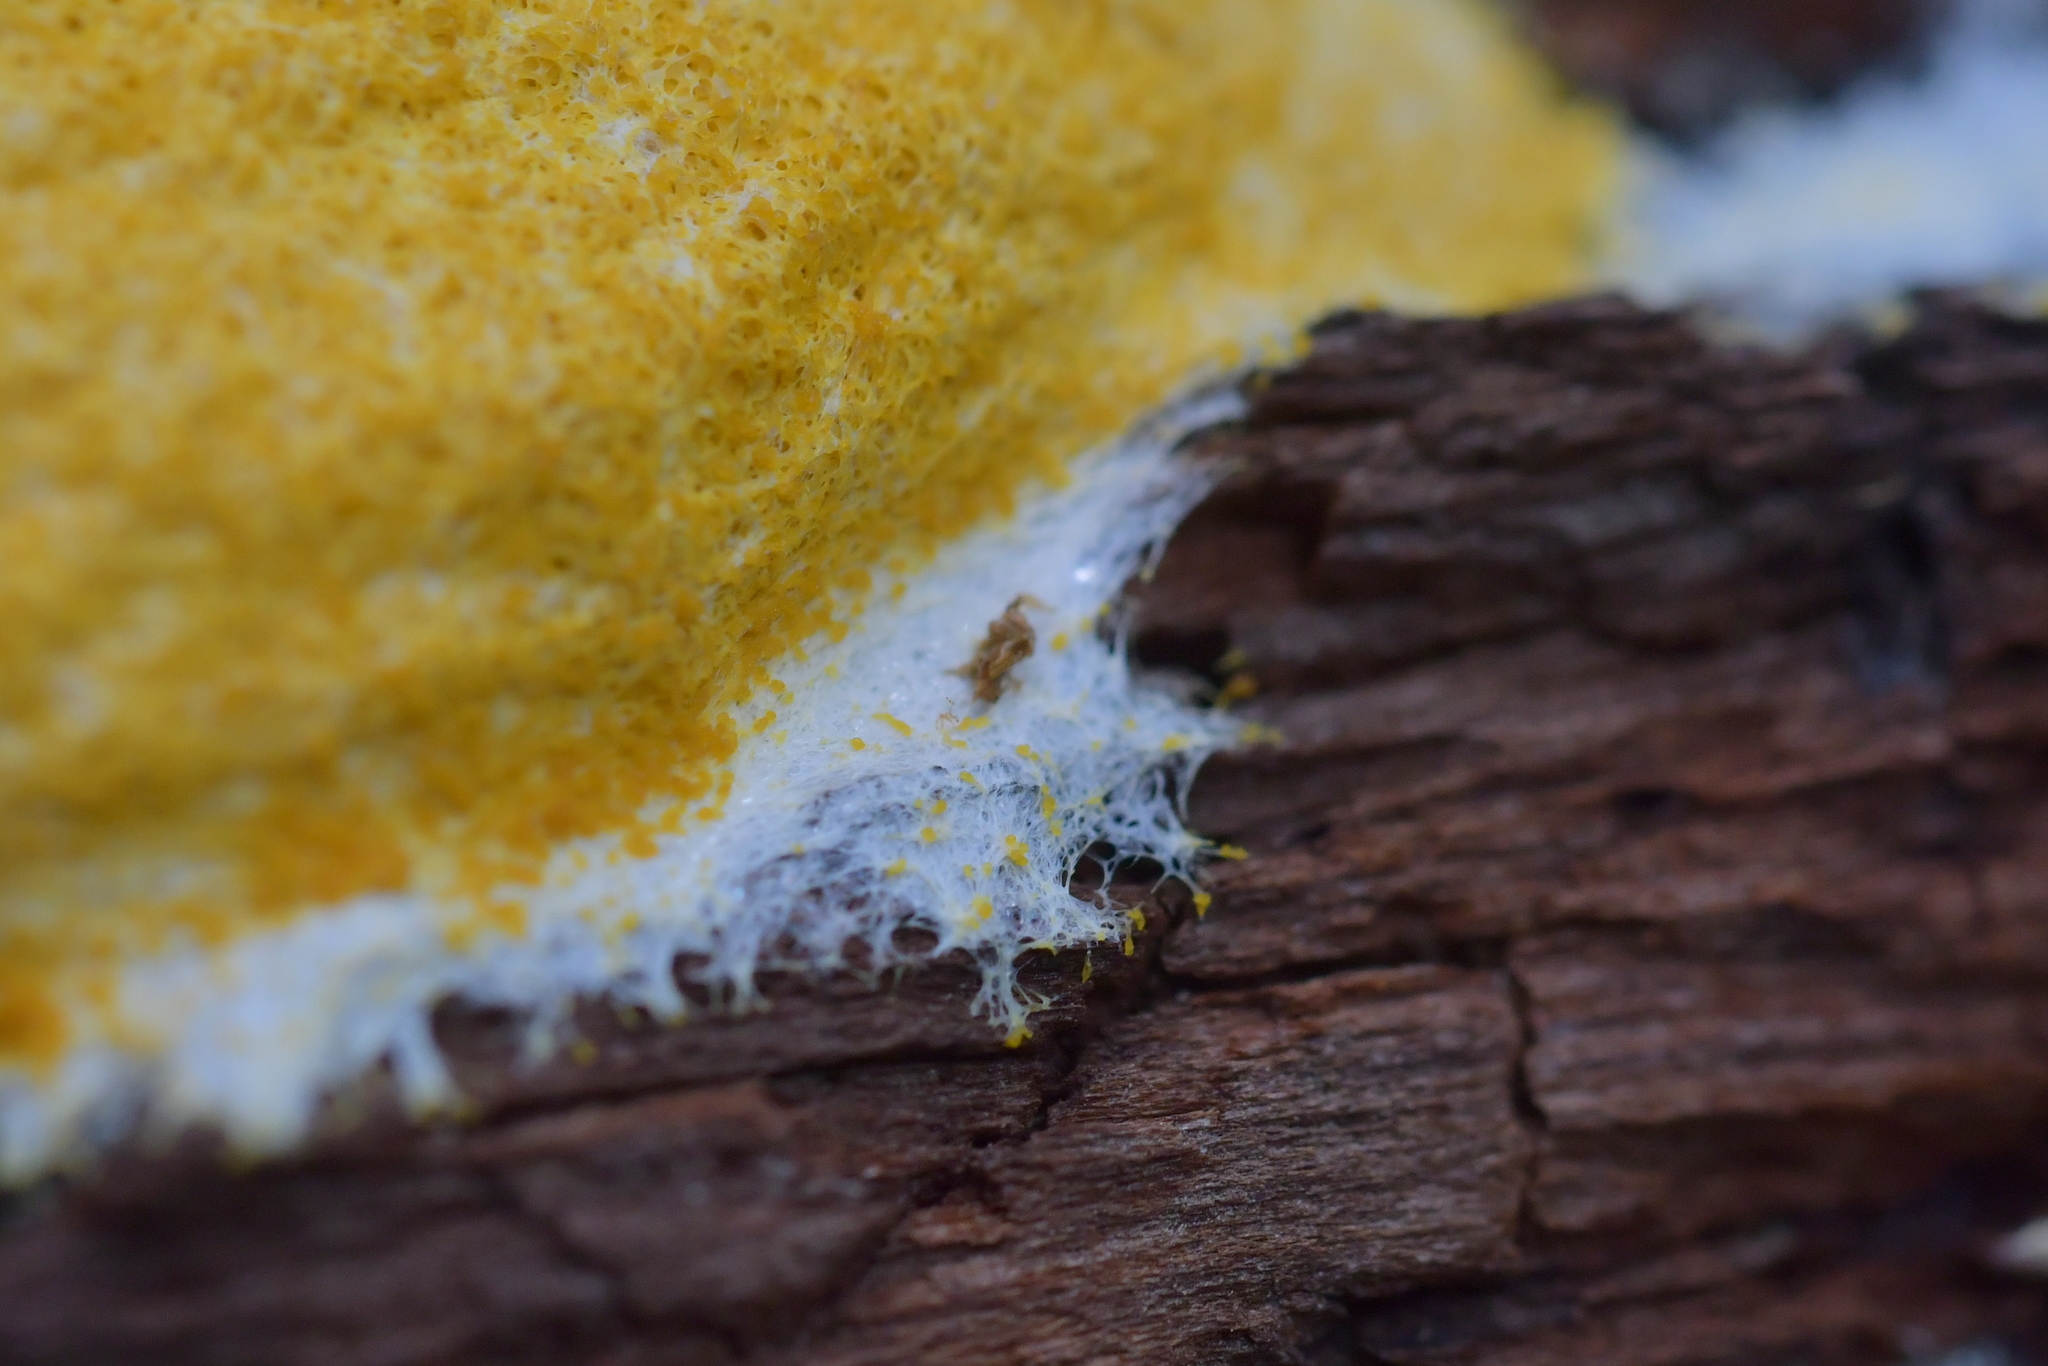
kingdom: Protozoa
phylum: Mycetozoa
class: Myxomycetes
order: Physarales
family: Physaraceae
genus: Fuligo
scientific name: Fuligo septica
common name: Dog vomit slime mold
